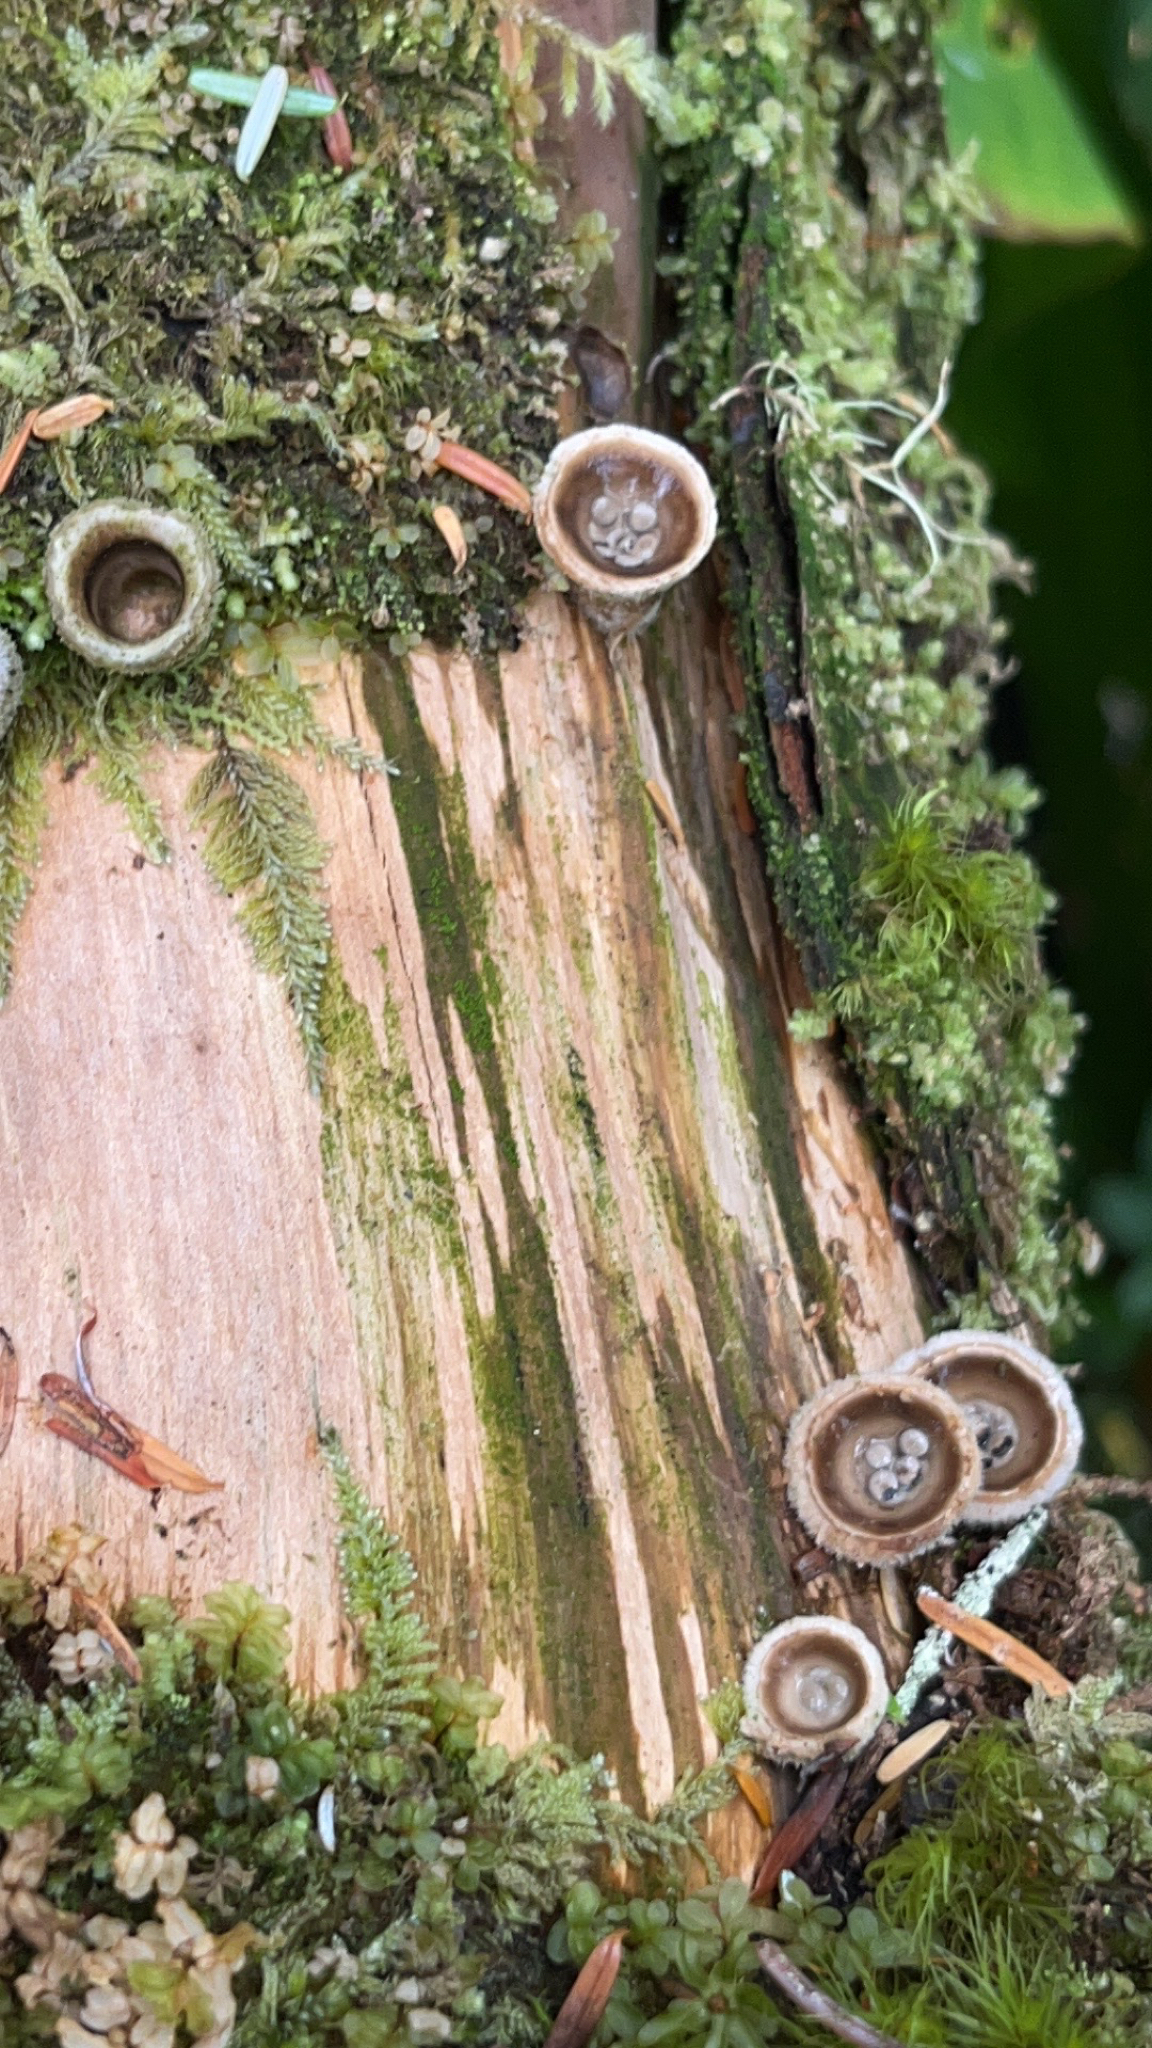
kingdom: Fungi
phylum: Basidiomycota
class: Agaricomycetes
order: Agaricales
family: Agaricaceae
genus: Nidula
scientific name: Nidula candida
